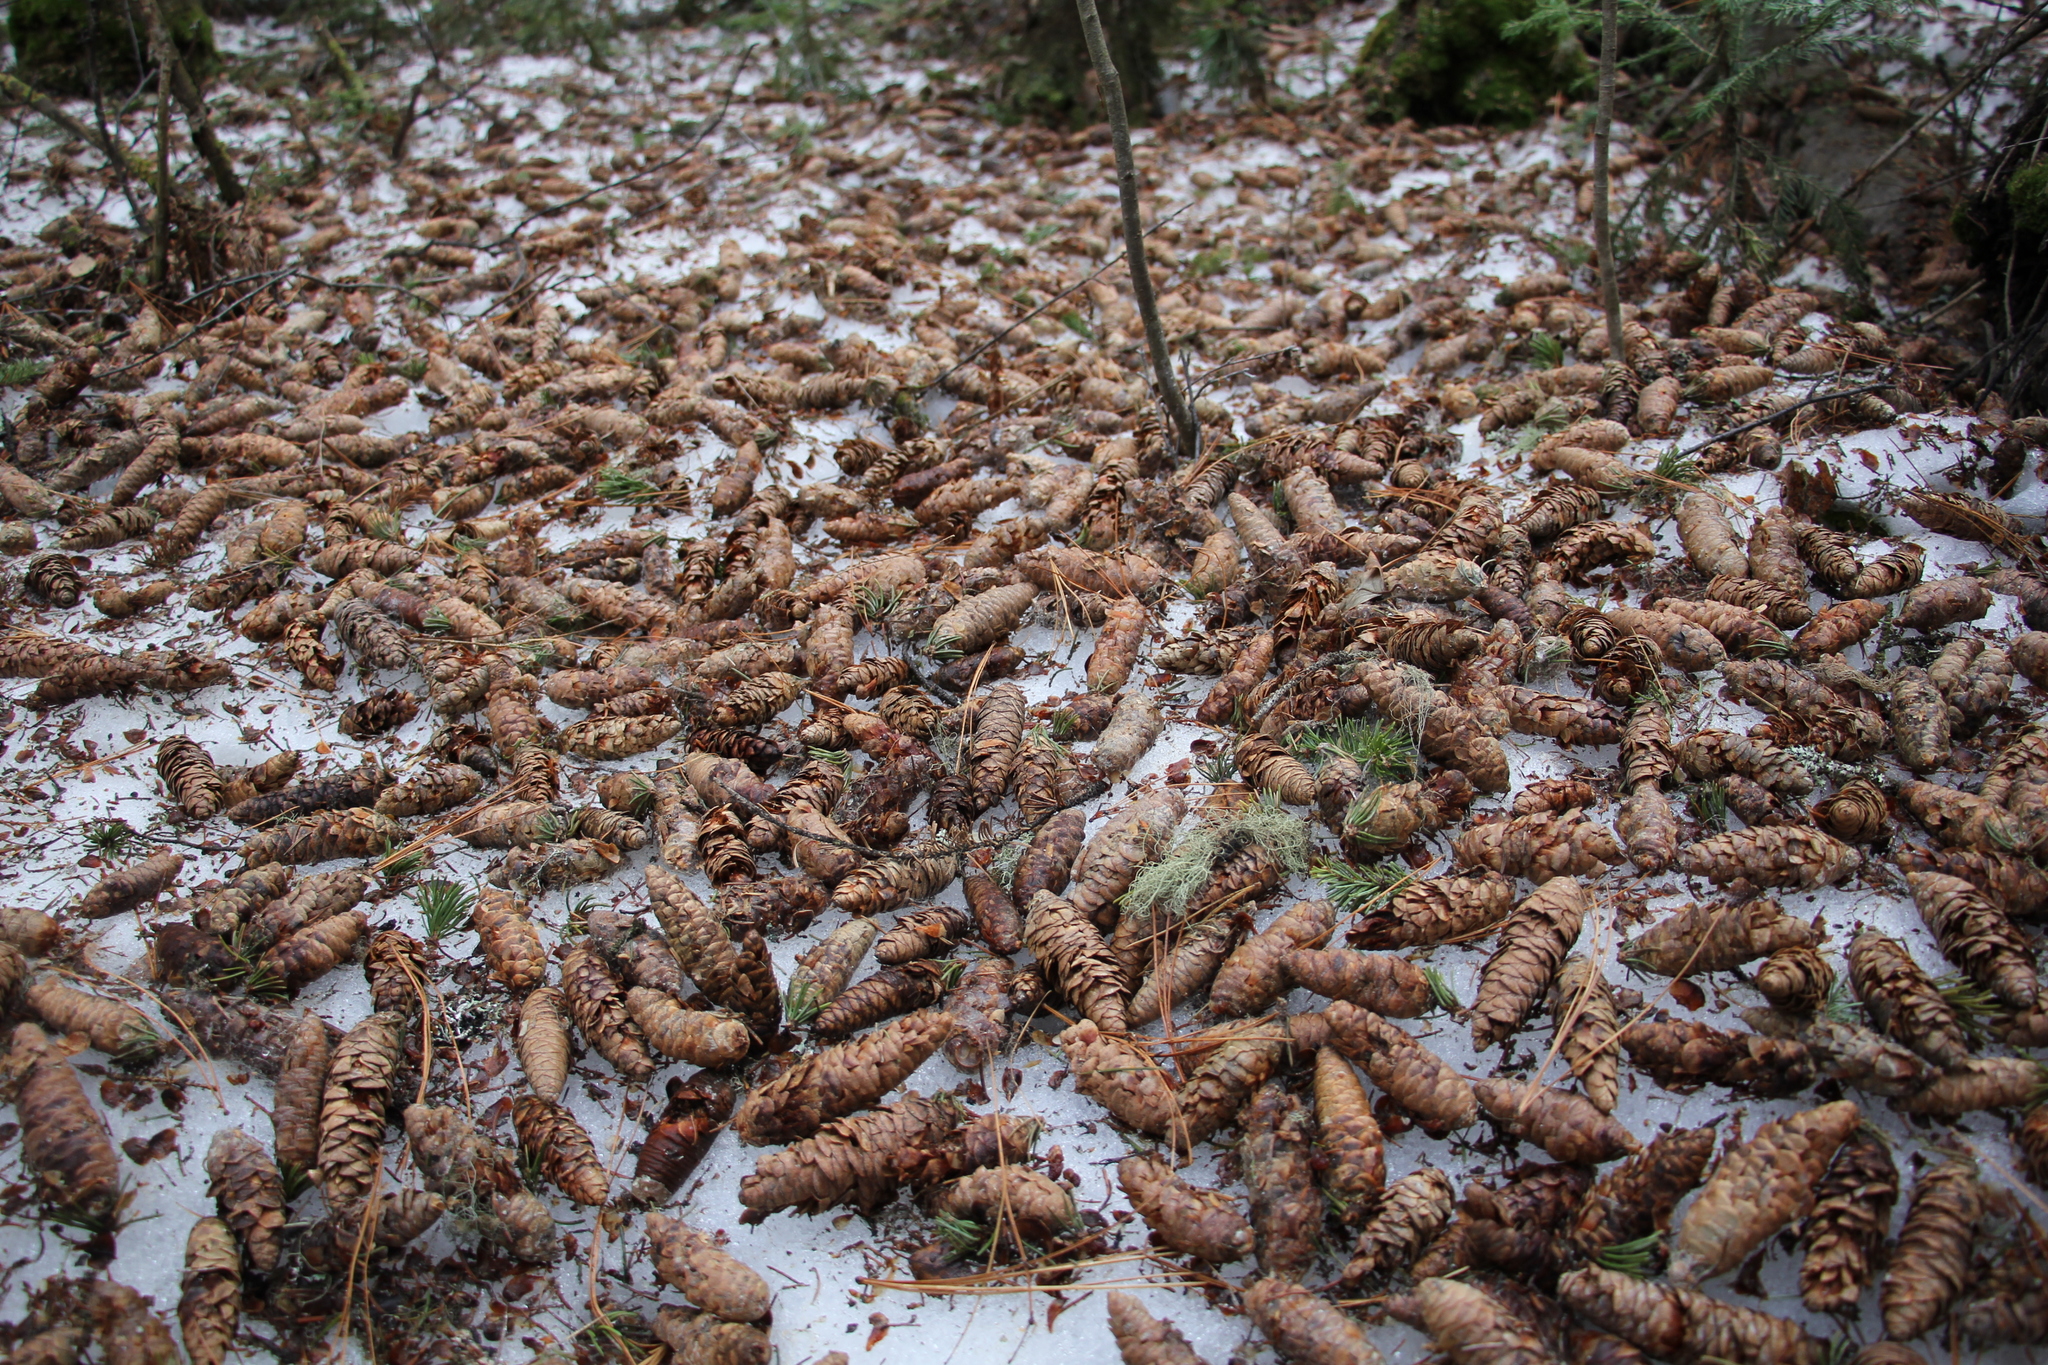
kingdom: Plantae
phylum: Tracheophyta
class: Pinopsida
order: Pinales
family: Pinaceae
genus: Picea
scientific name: Picea obovata
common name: Siberian spruce
